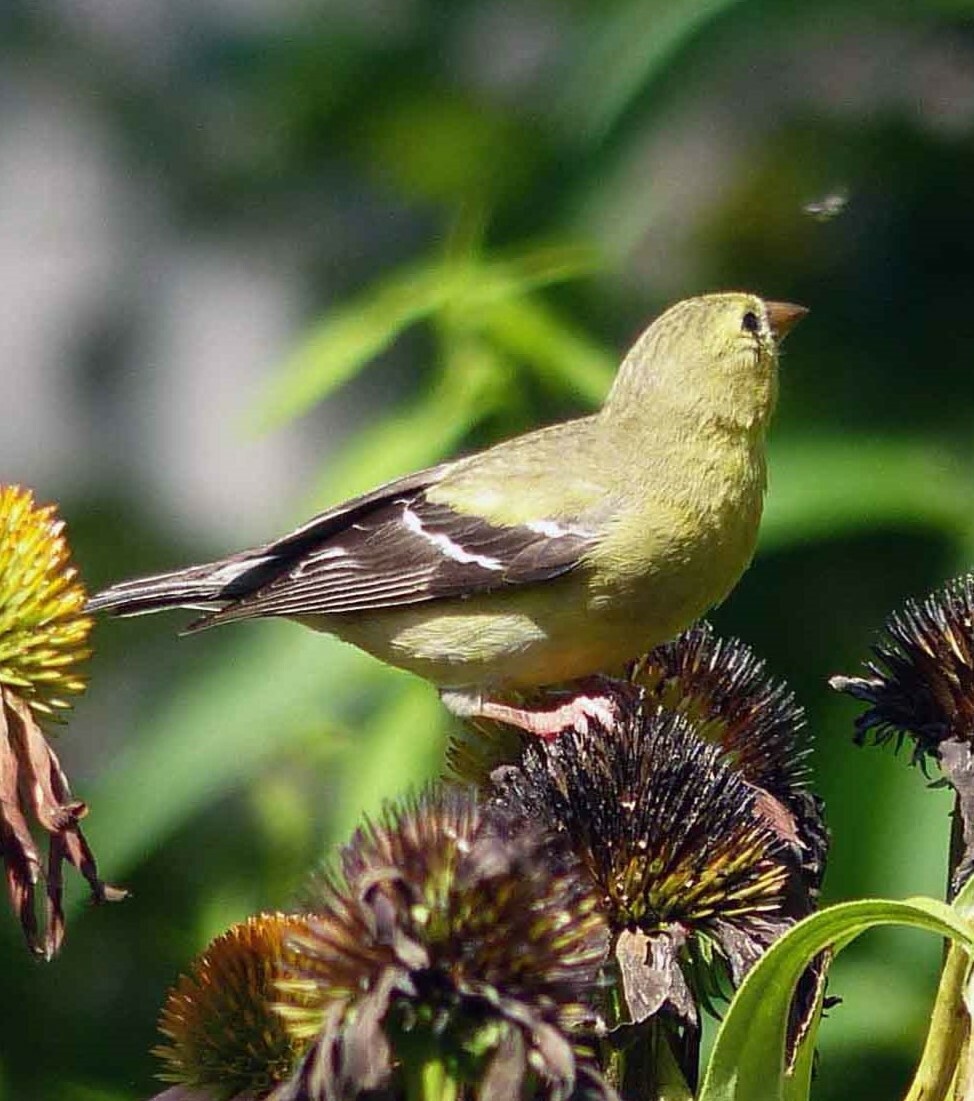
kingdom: Animalia
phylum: Chordata
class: Aves
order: Passeriformes
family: Fringillidae
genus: Spinus
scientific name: Spinus tristis
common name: American goldfinch
